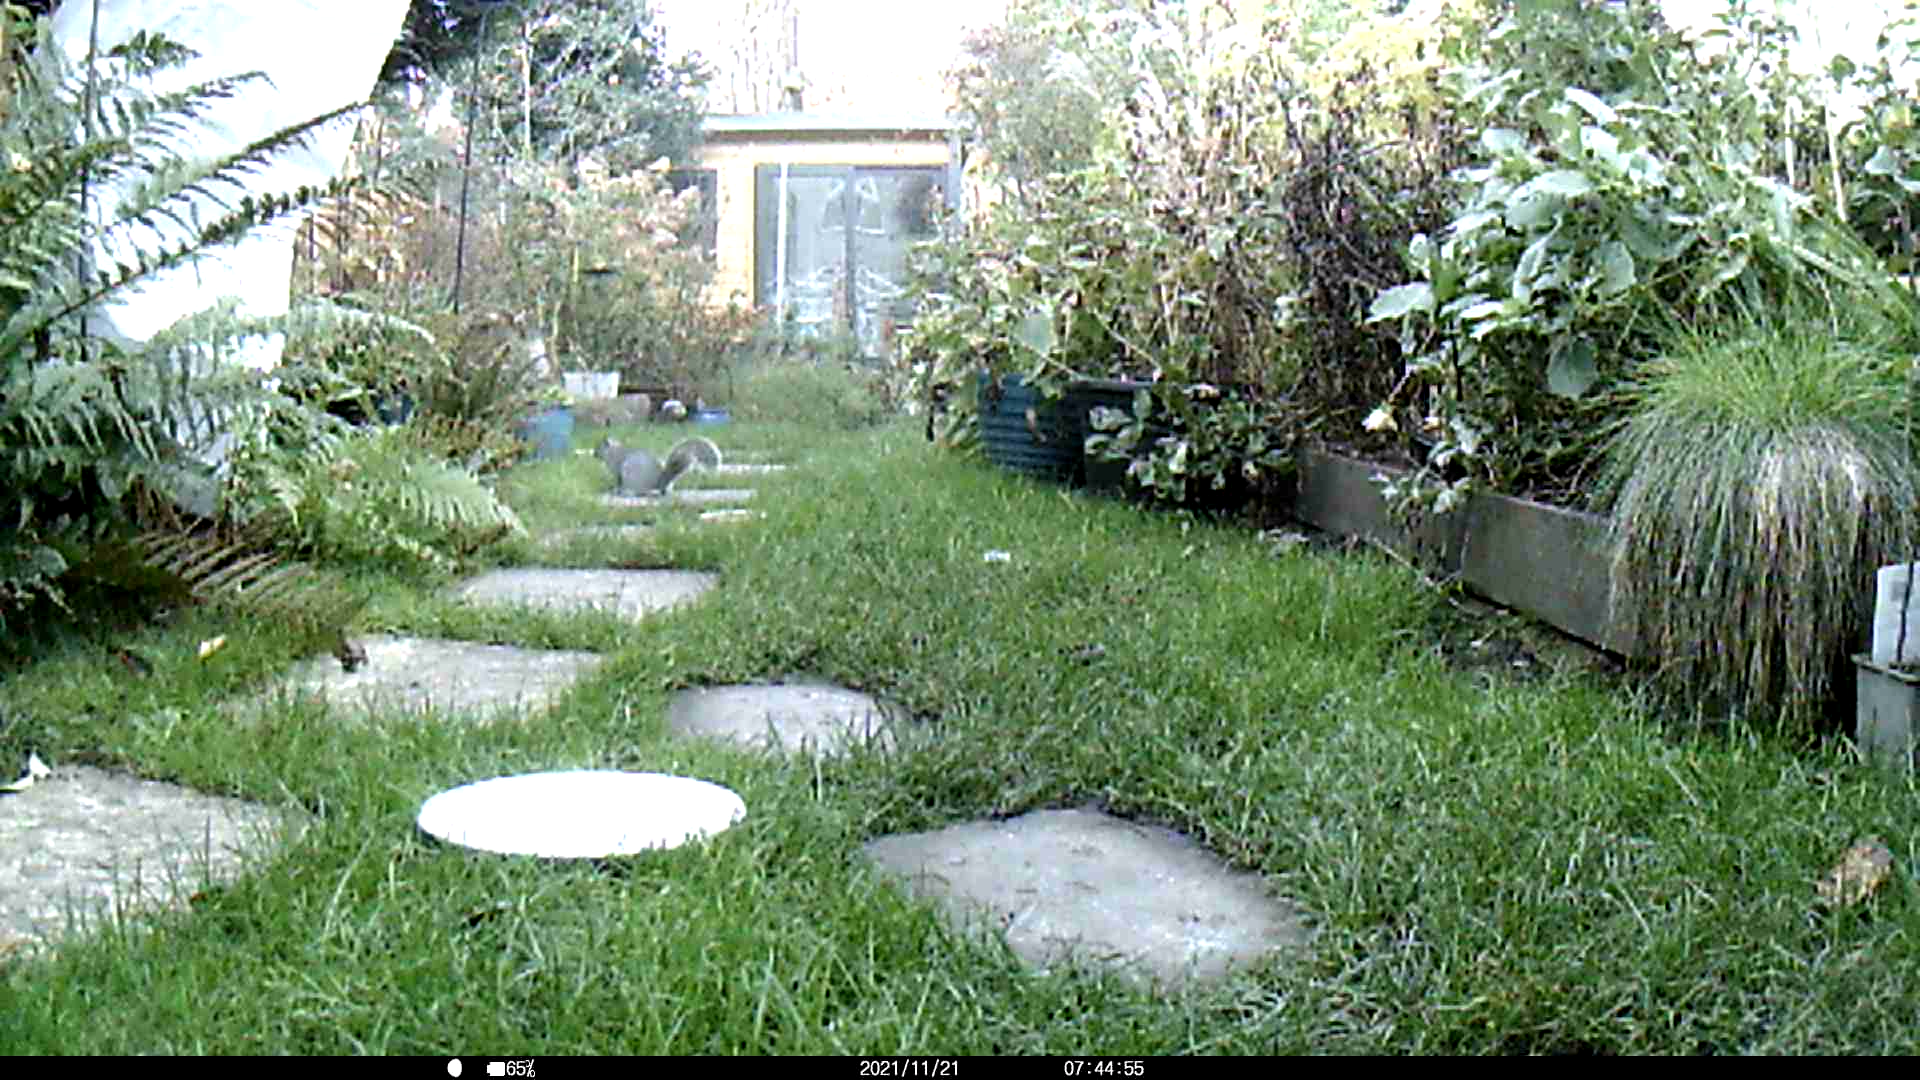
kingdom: Animalia
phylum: Chordata
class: Mammalia
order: Rodentia
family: Sciuridae
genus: Sciurus
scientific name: Sciurus carolinensis
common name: Eastern gray squirrel
